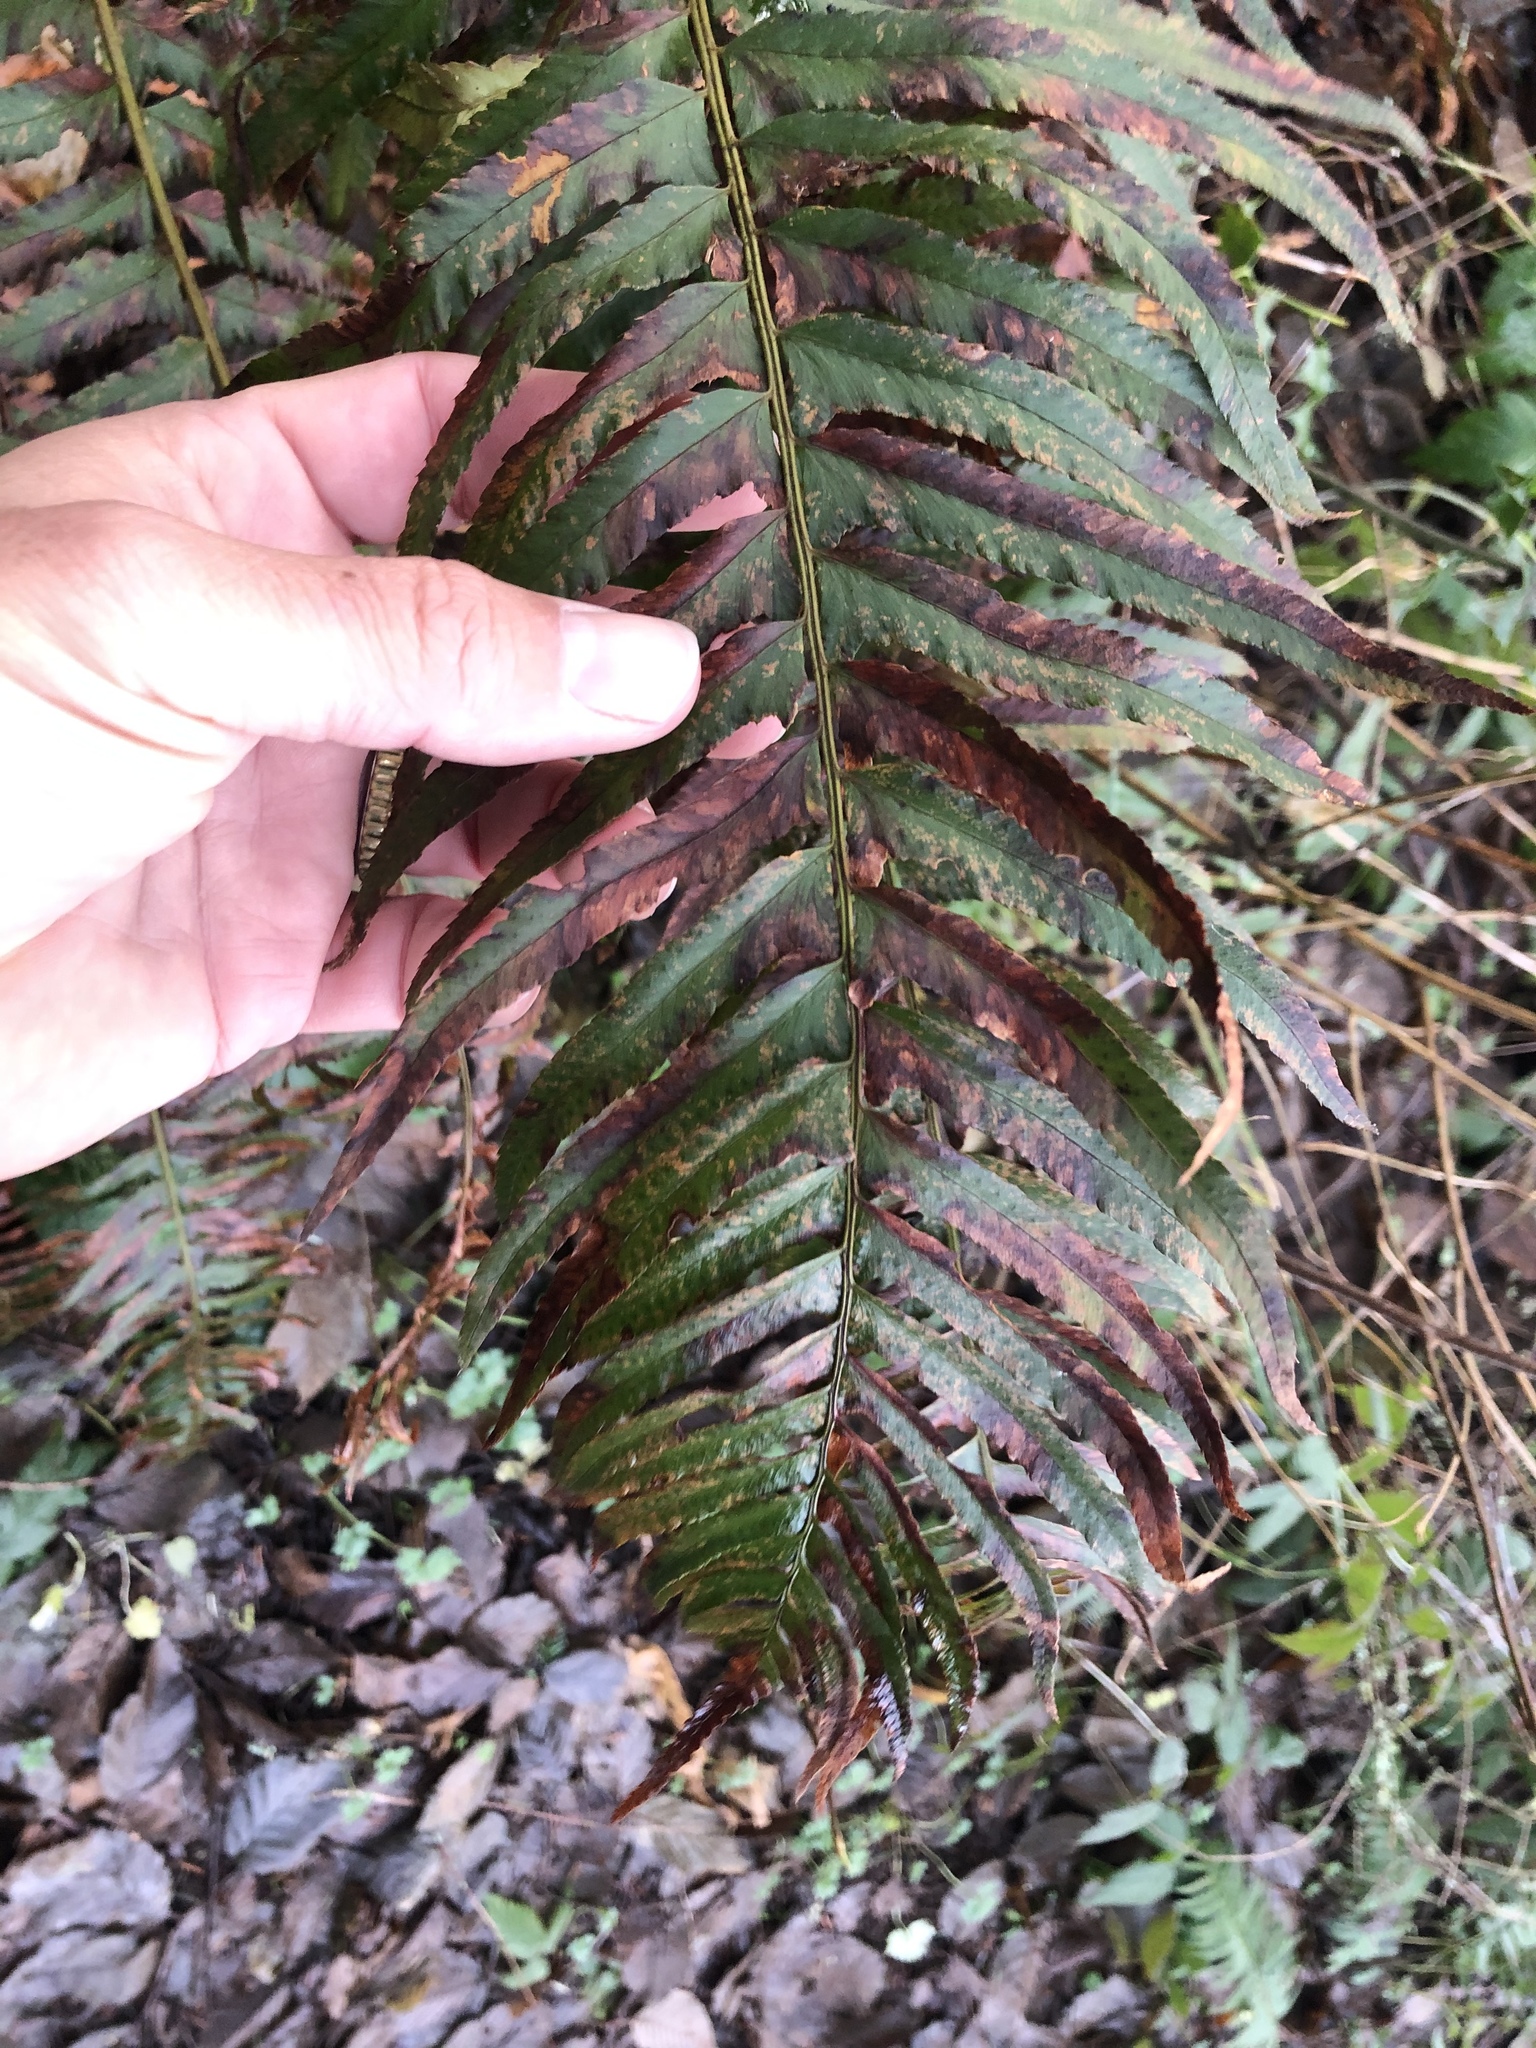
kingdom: Plantae
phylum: Tracheophyta
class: Polypodiopsida
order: Polypodiales
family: Dryopteridaceae
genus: Polystichum
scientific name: Polystichum munitum
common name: Western sword-fern
